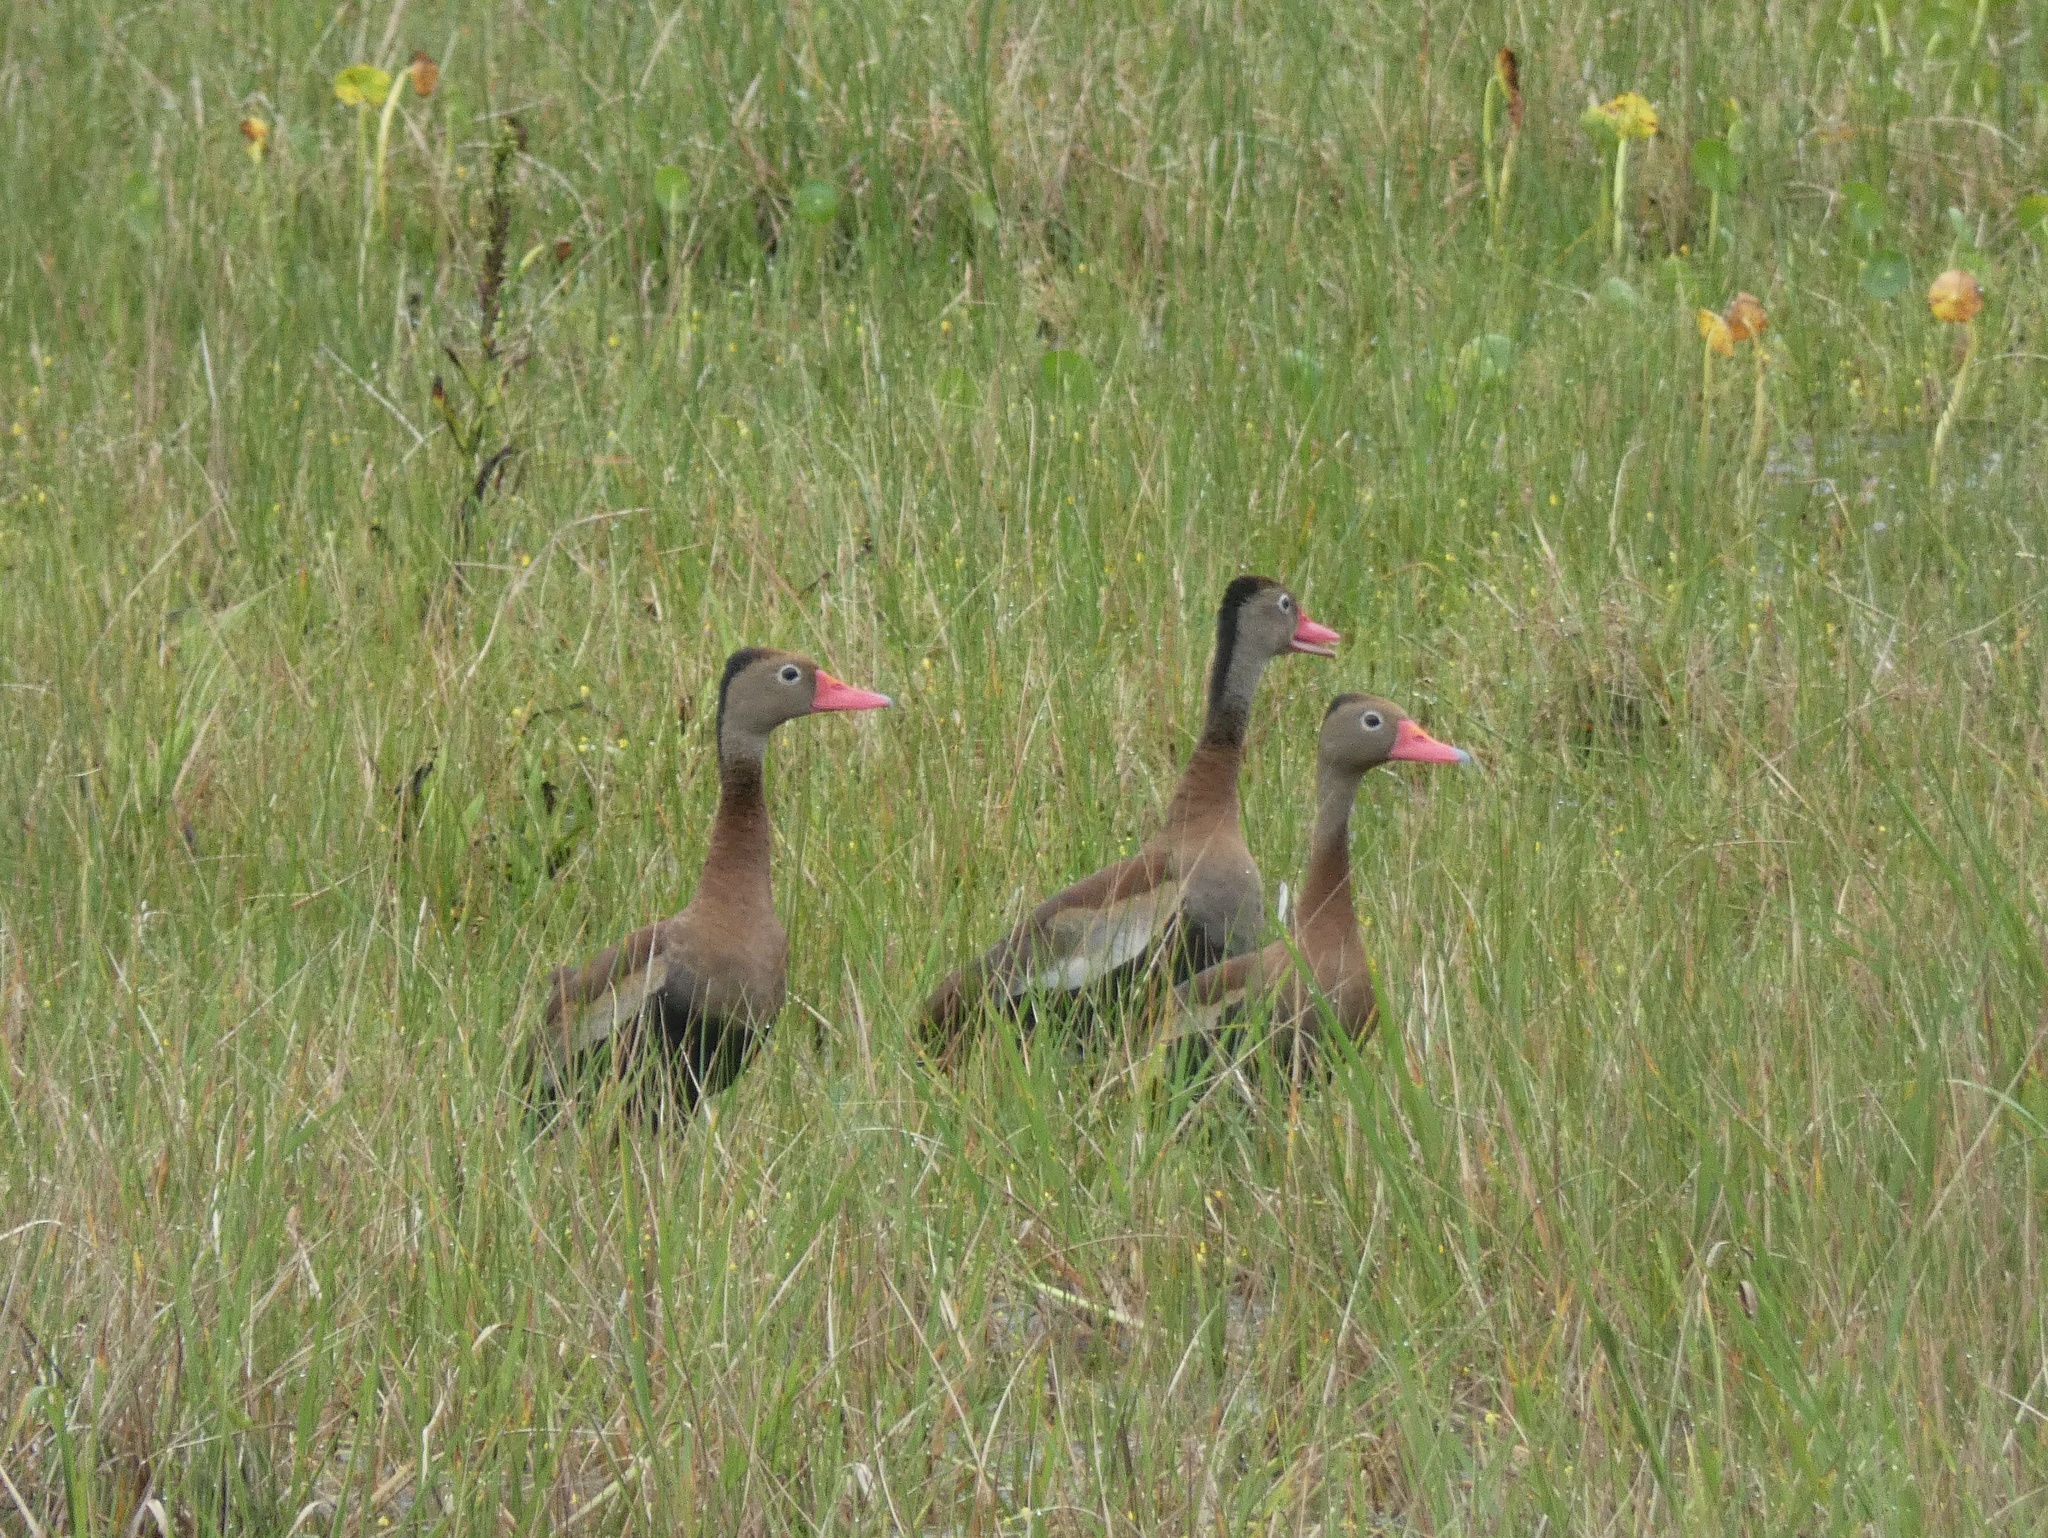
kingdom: Animalia
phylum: Chordata
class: Aves
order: Anseriformes
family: Anatidae
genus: Dendrocygna
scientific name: Dendrocygna autumnalis
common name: Black-bellied whistling duck
